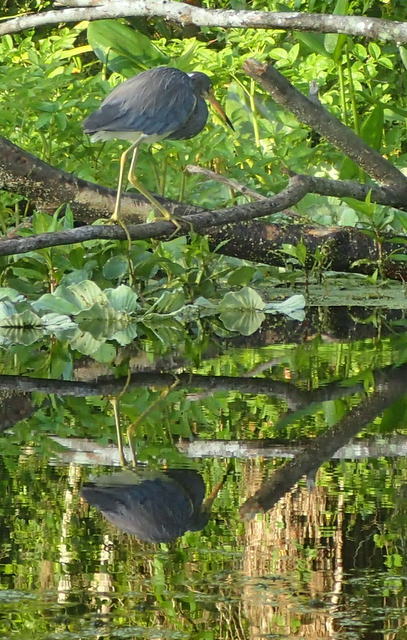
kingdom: Animalia
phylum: Chordata
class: Aves
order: Pelecaniformes
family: Ardeidae
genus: Egretta
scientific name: Egretta tricolor
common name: Tricolored heron
